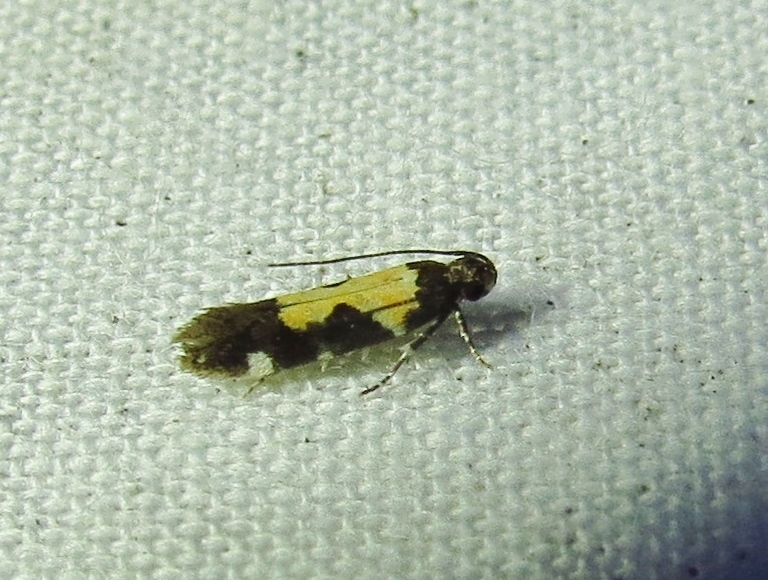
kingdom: Animalia
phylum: Arthropoda
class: Insecta
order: Lepidoptera
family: Gelechiidae
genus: Stegasta
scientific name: Stegasta bosqueella
